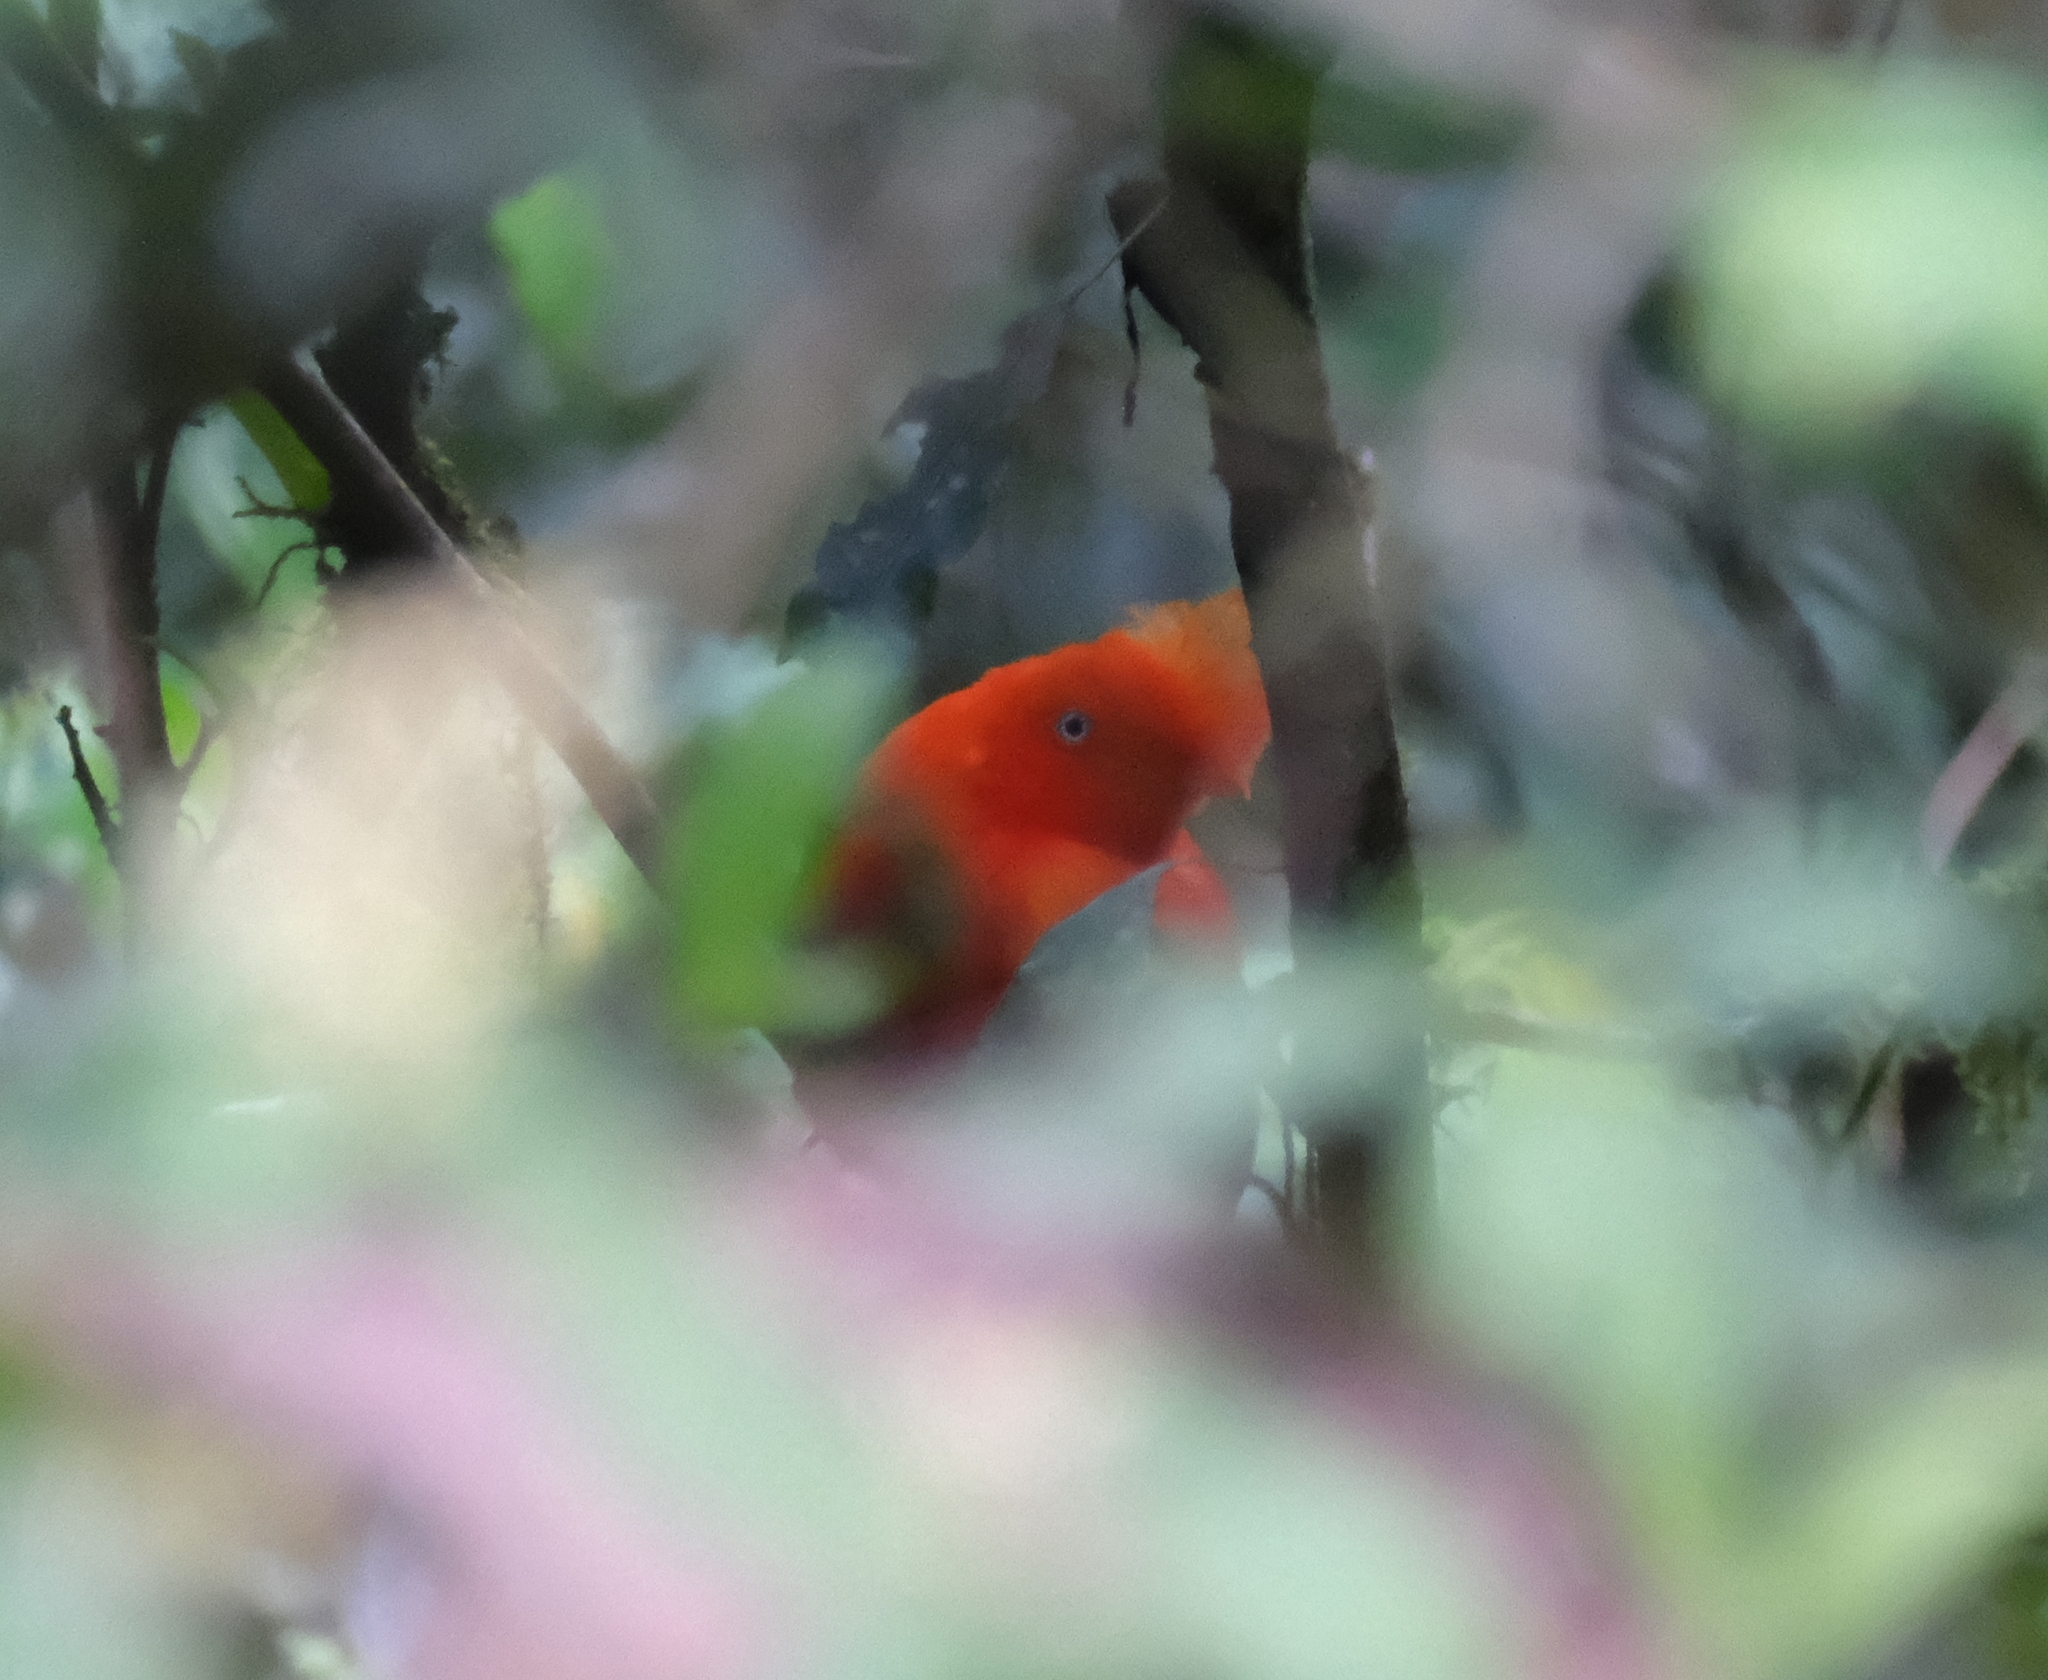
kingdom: Animalia
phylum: Chordata
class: Aves
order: Passeriformes
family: Cotingidae
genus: Rupicola
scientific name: Rupicola peruvianus
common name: Andean cock-of-the-rock
